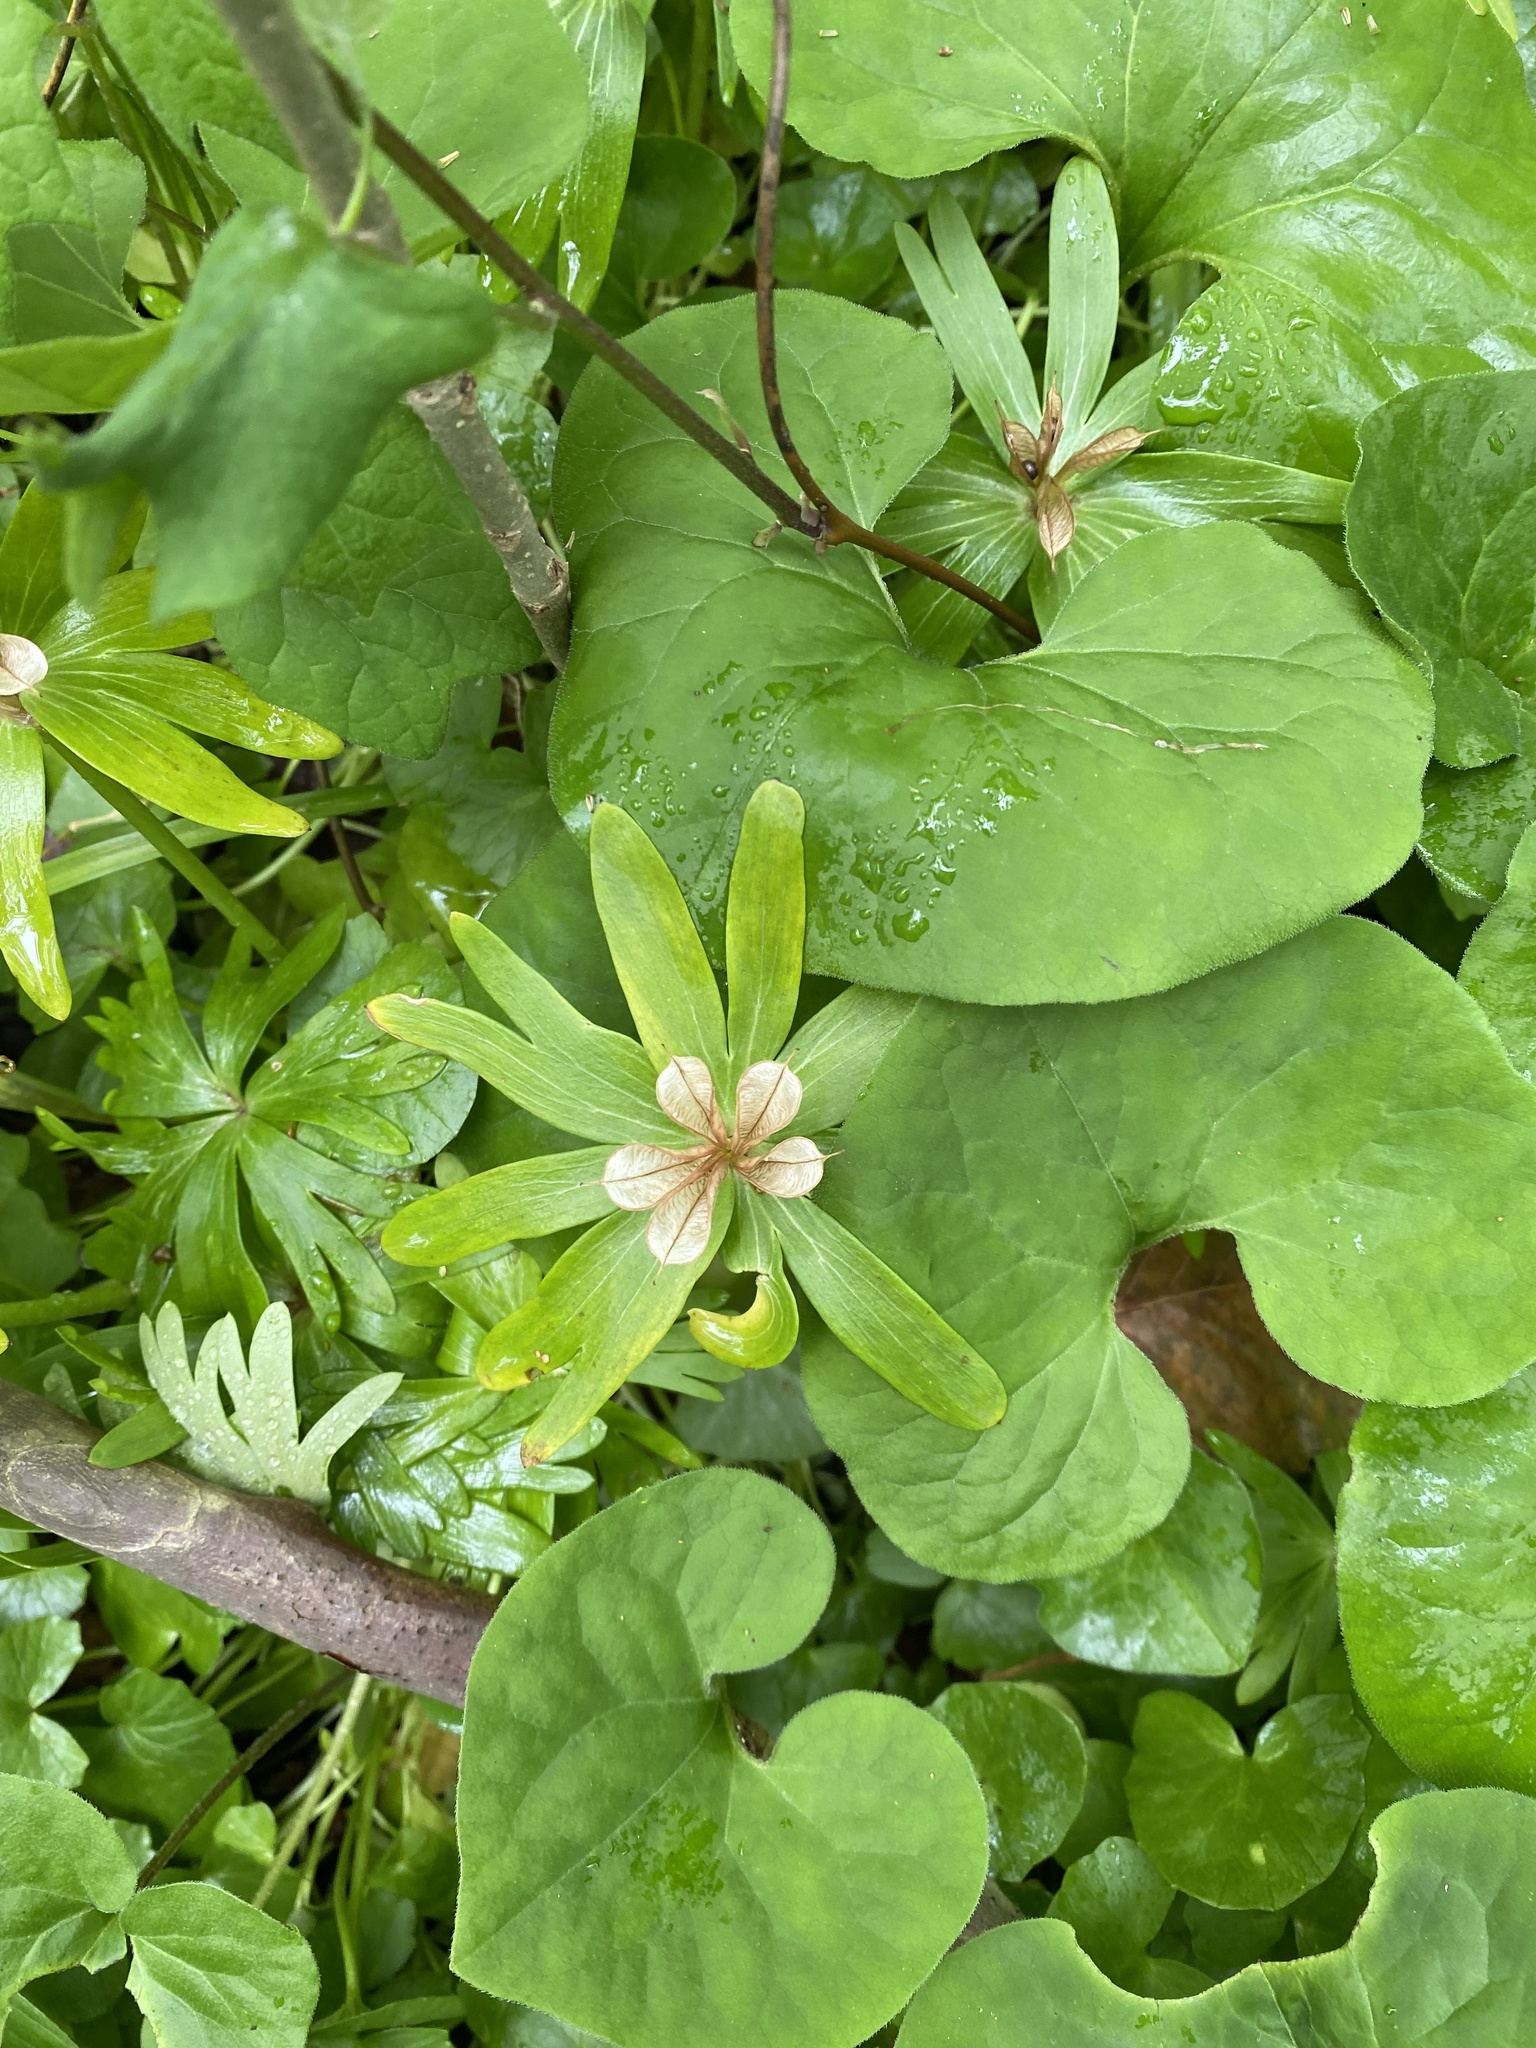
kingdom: Plantae
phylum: Tracheophyta
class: Magnoliopsida
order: Ranunculales
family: Ranunculaceae
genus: Eranthis
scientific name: Eranthis hyemalis
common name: Winter aconite
